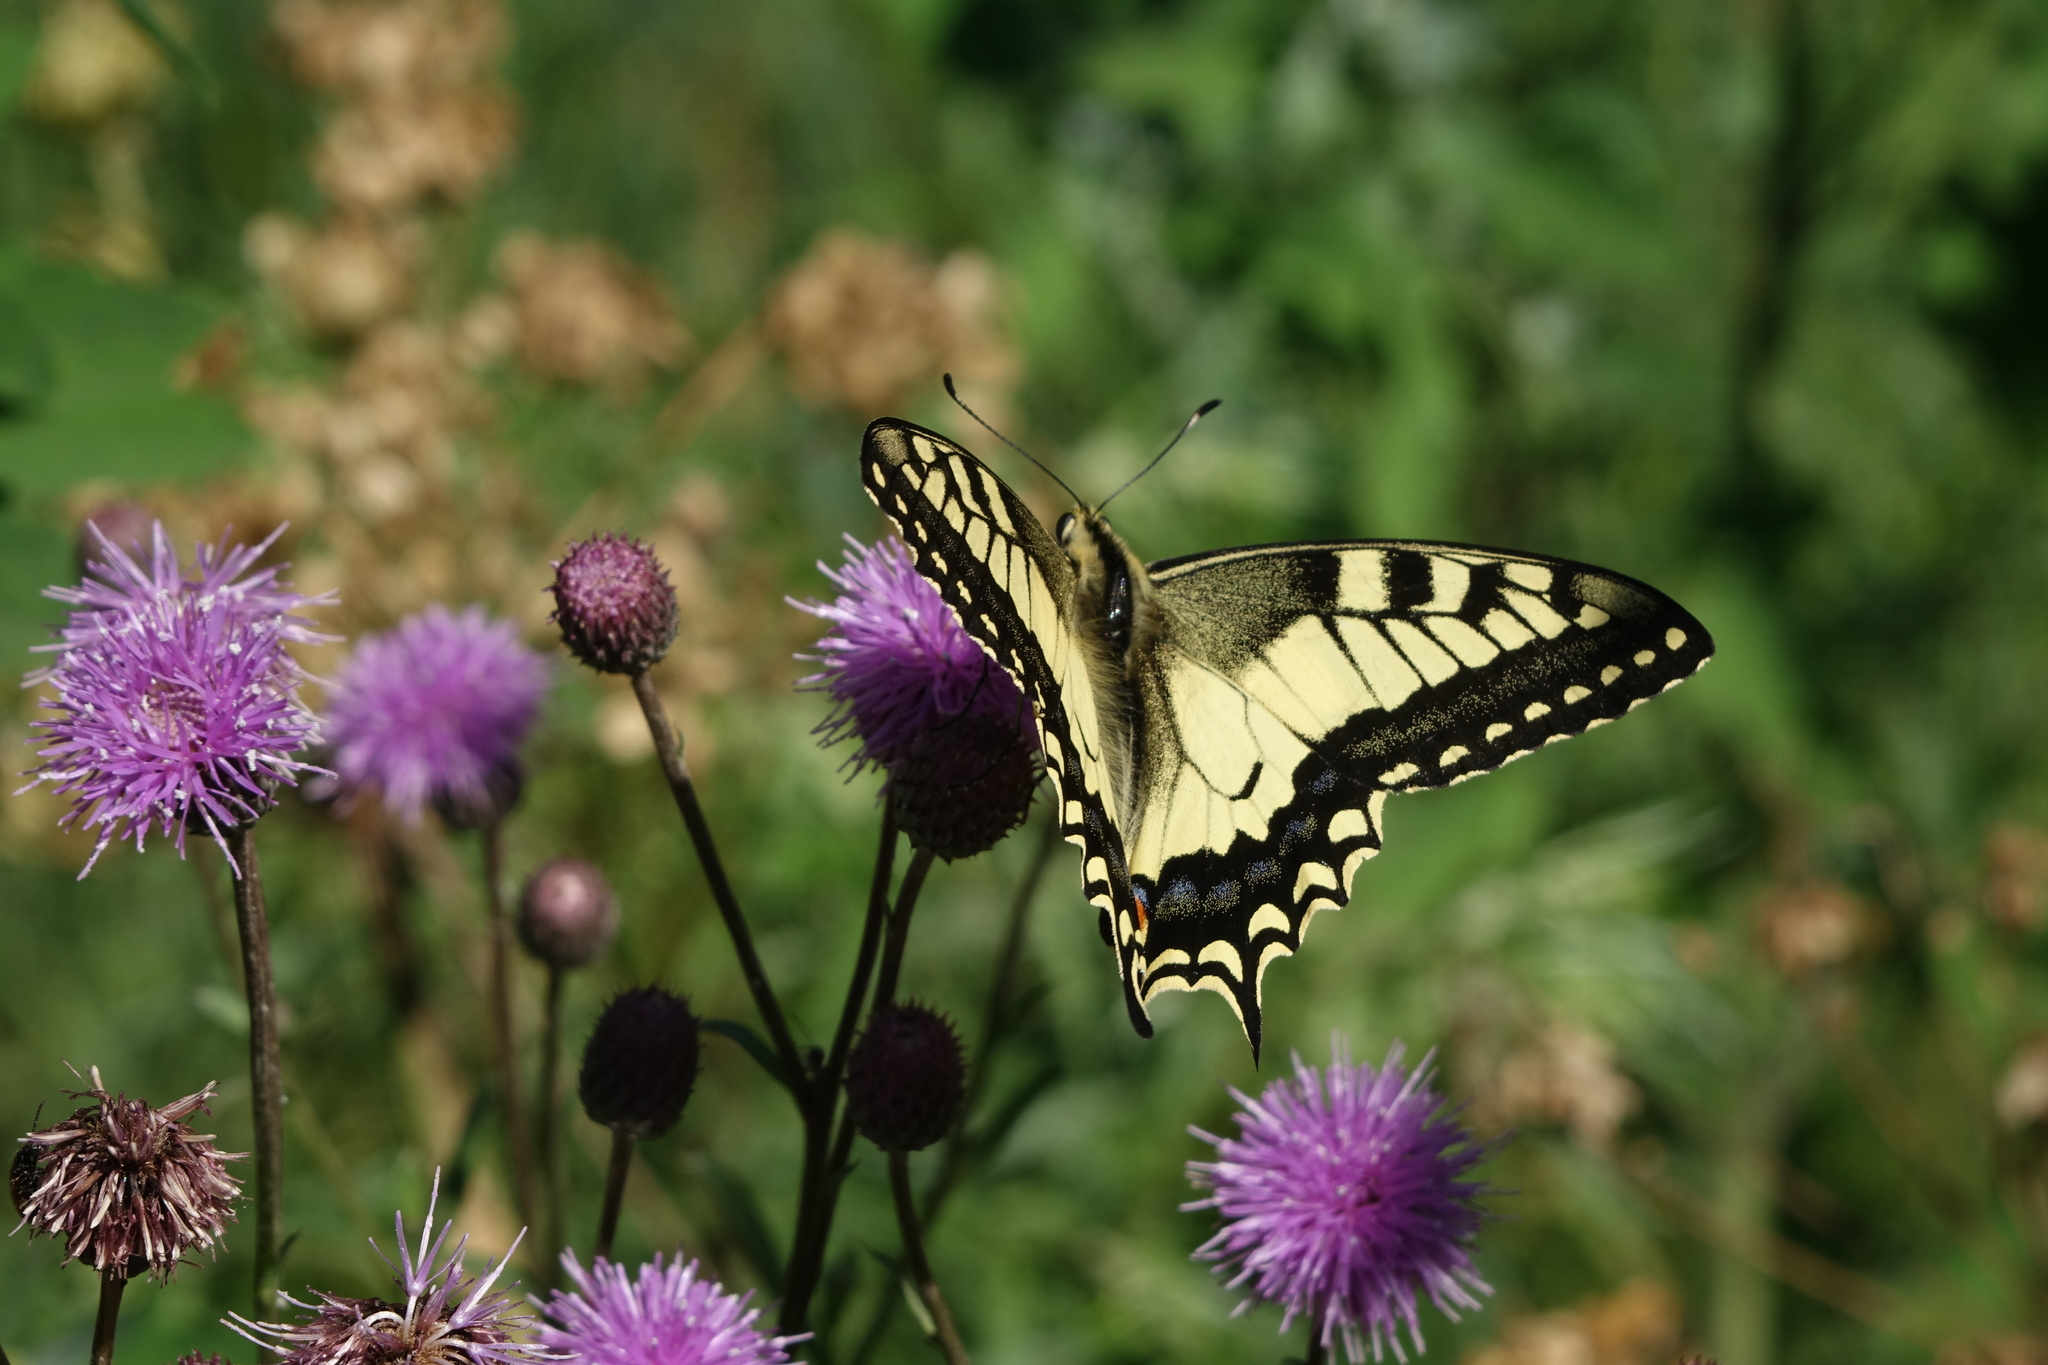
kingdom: Plantae
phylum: Tracheophyta
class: Magnoliopsida
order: Asterales
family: Asteraceae
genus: Cirsium
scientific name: Cirsium arvense
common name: Creeping thistle
